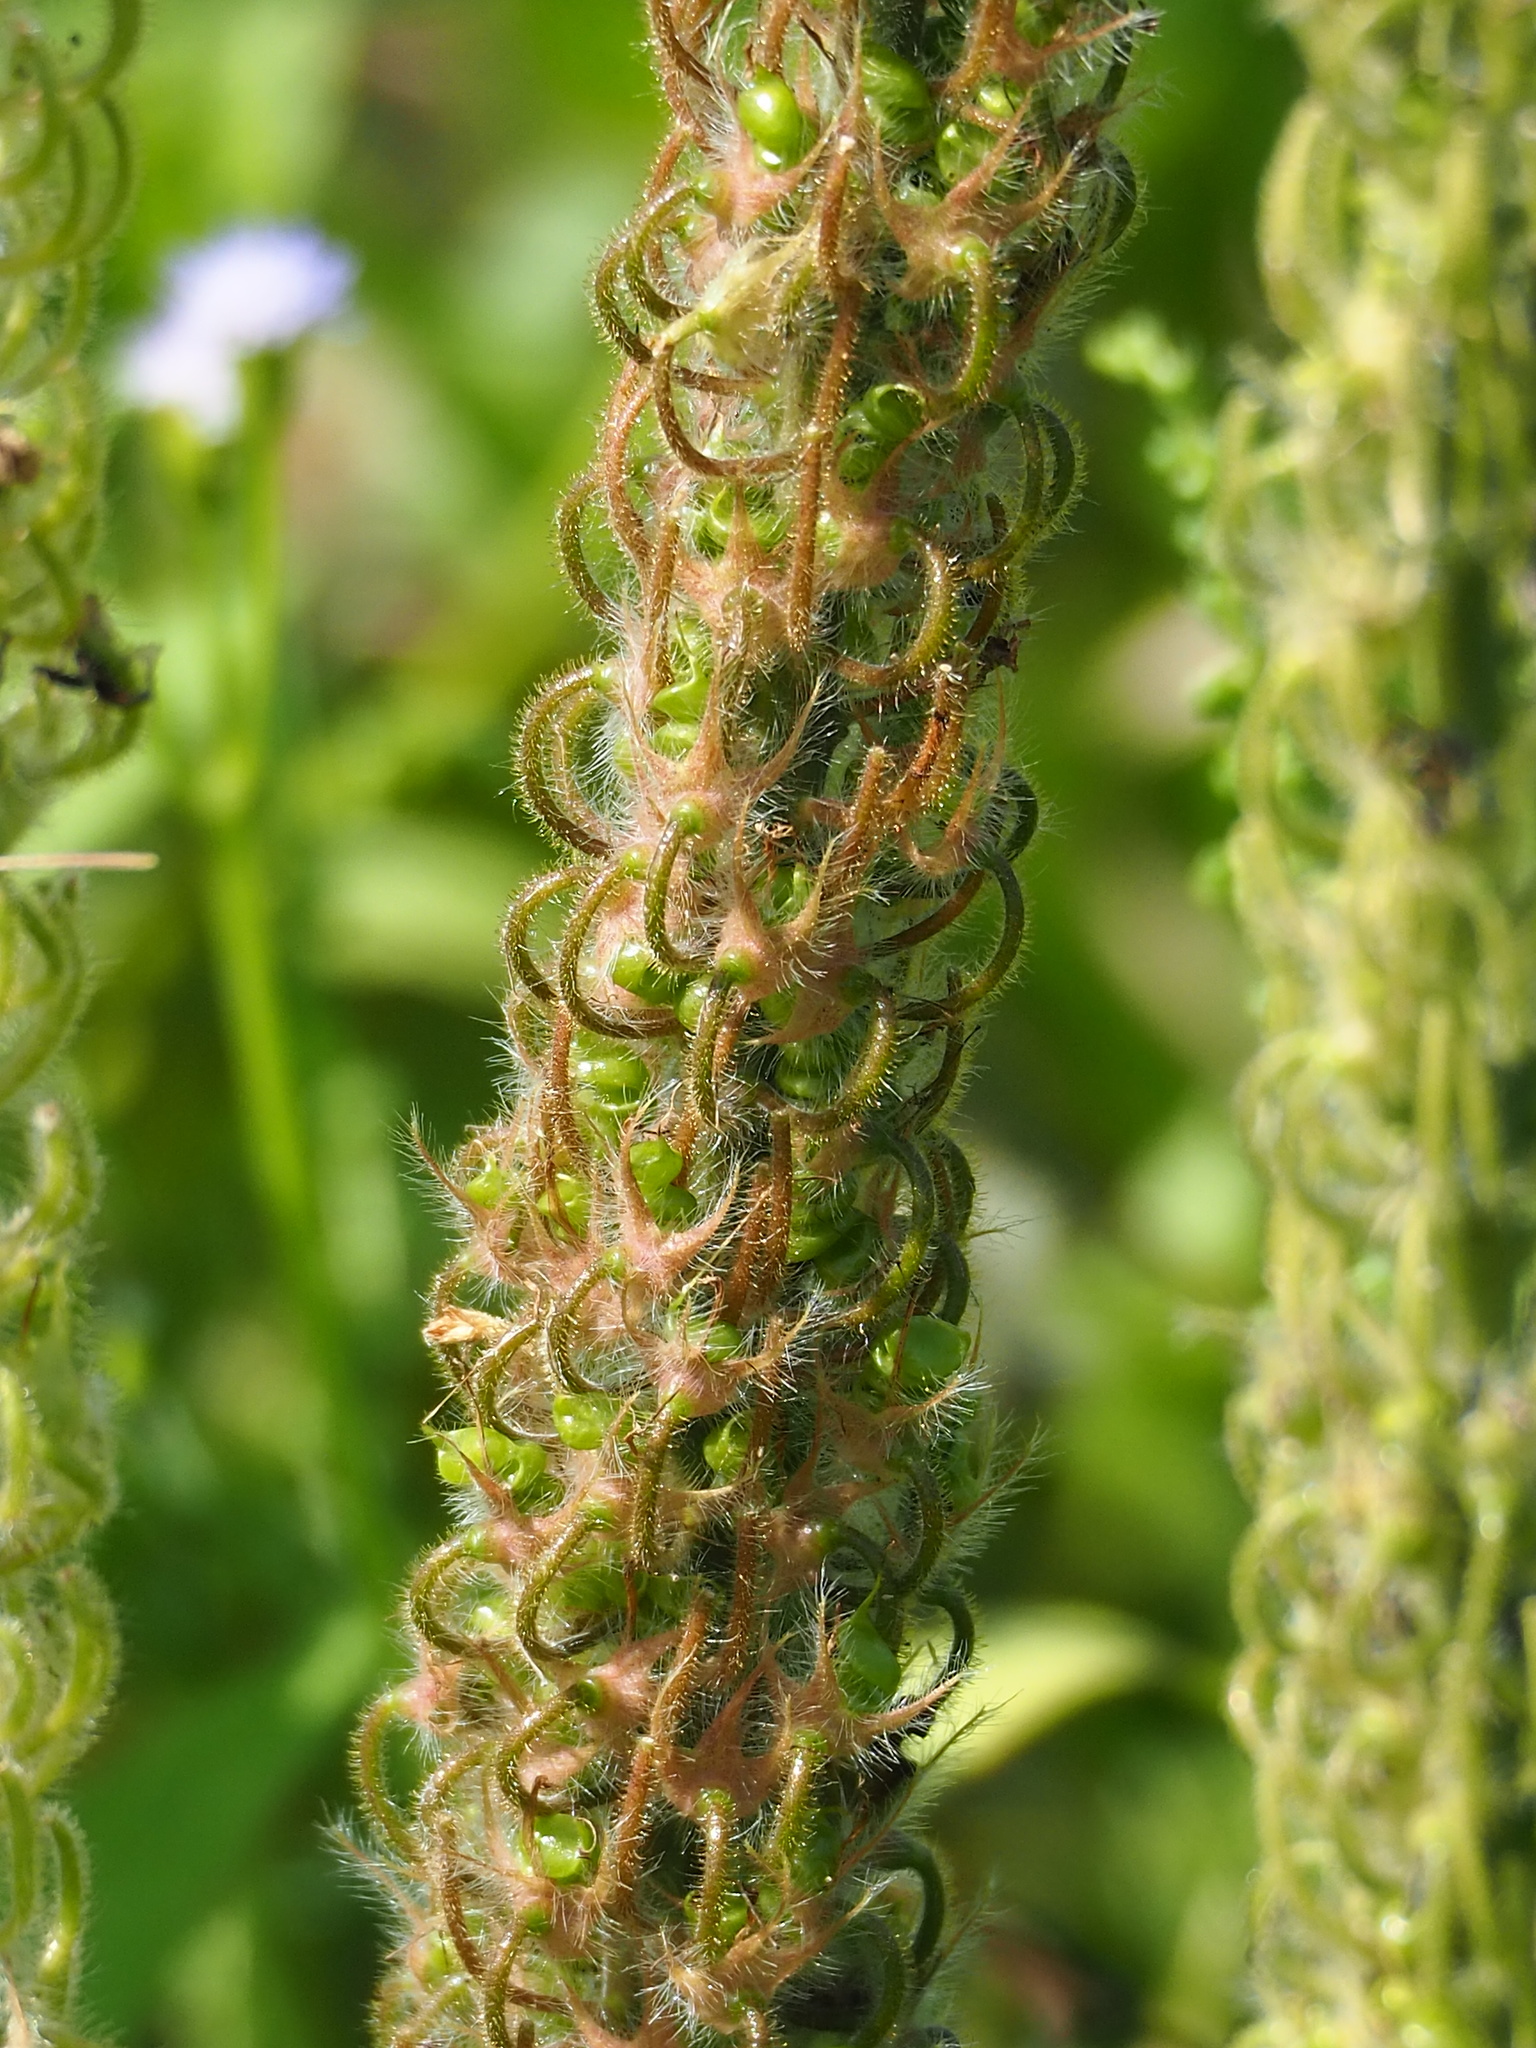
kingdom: Plantae
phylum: Tracheophyta
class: Magnoliopsida
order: Fabales
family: Fabaceae
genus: Uraria
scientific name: Uraria crinita
